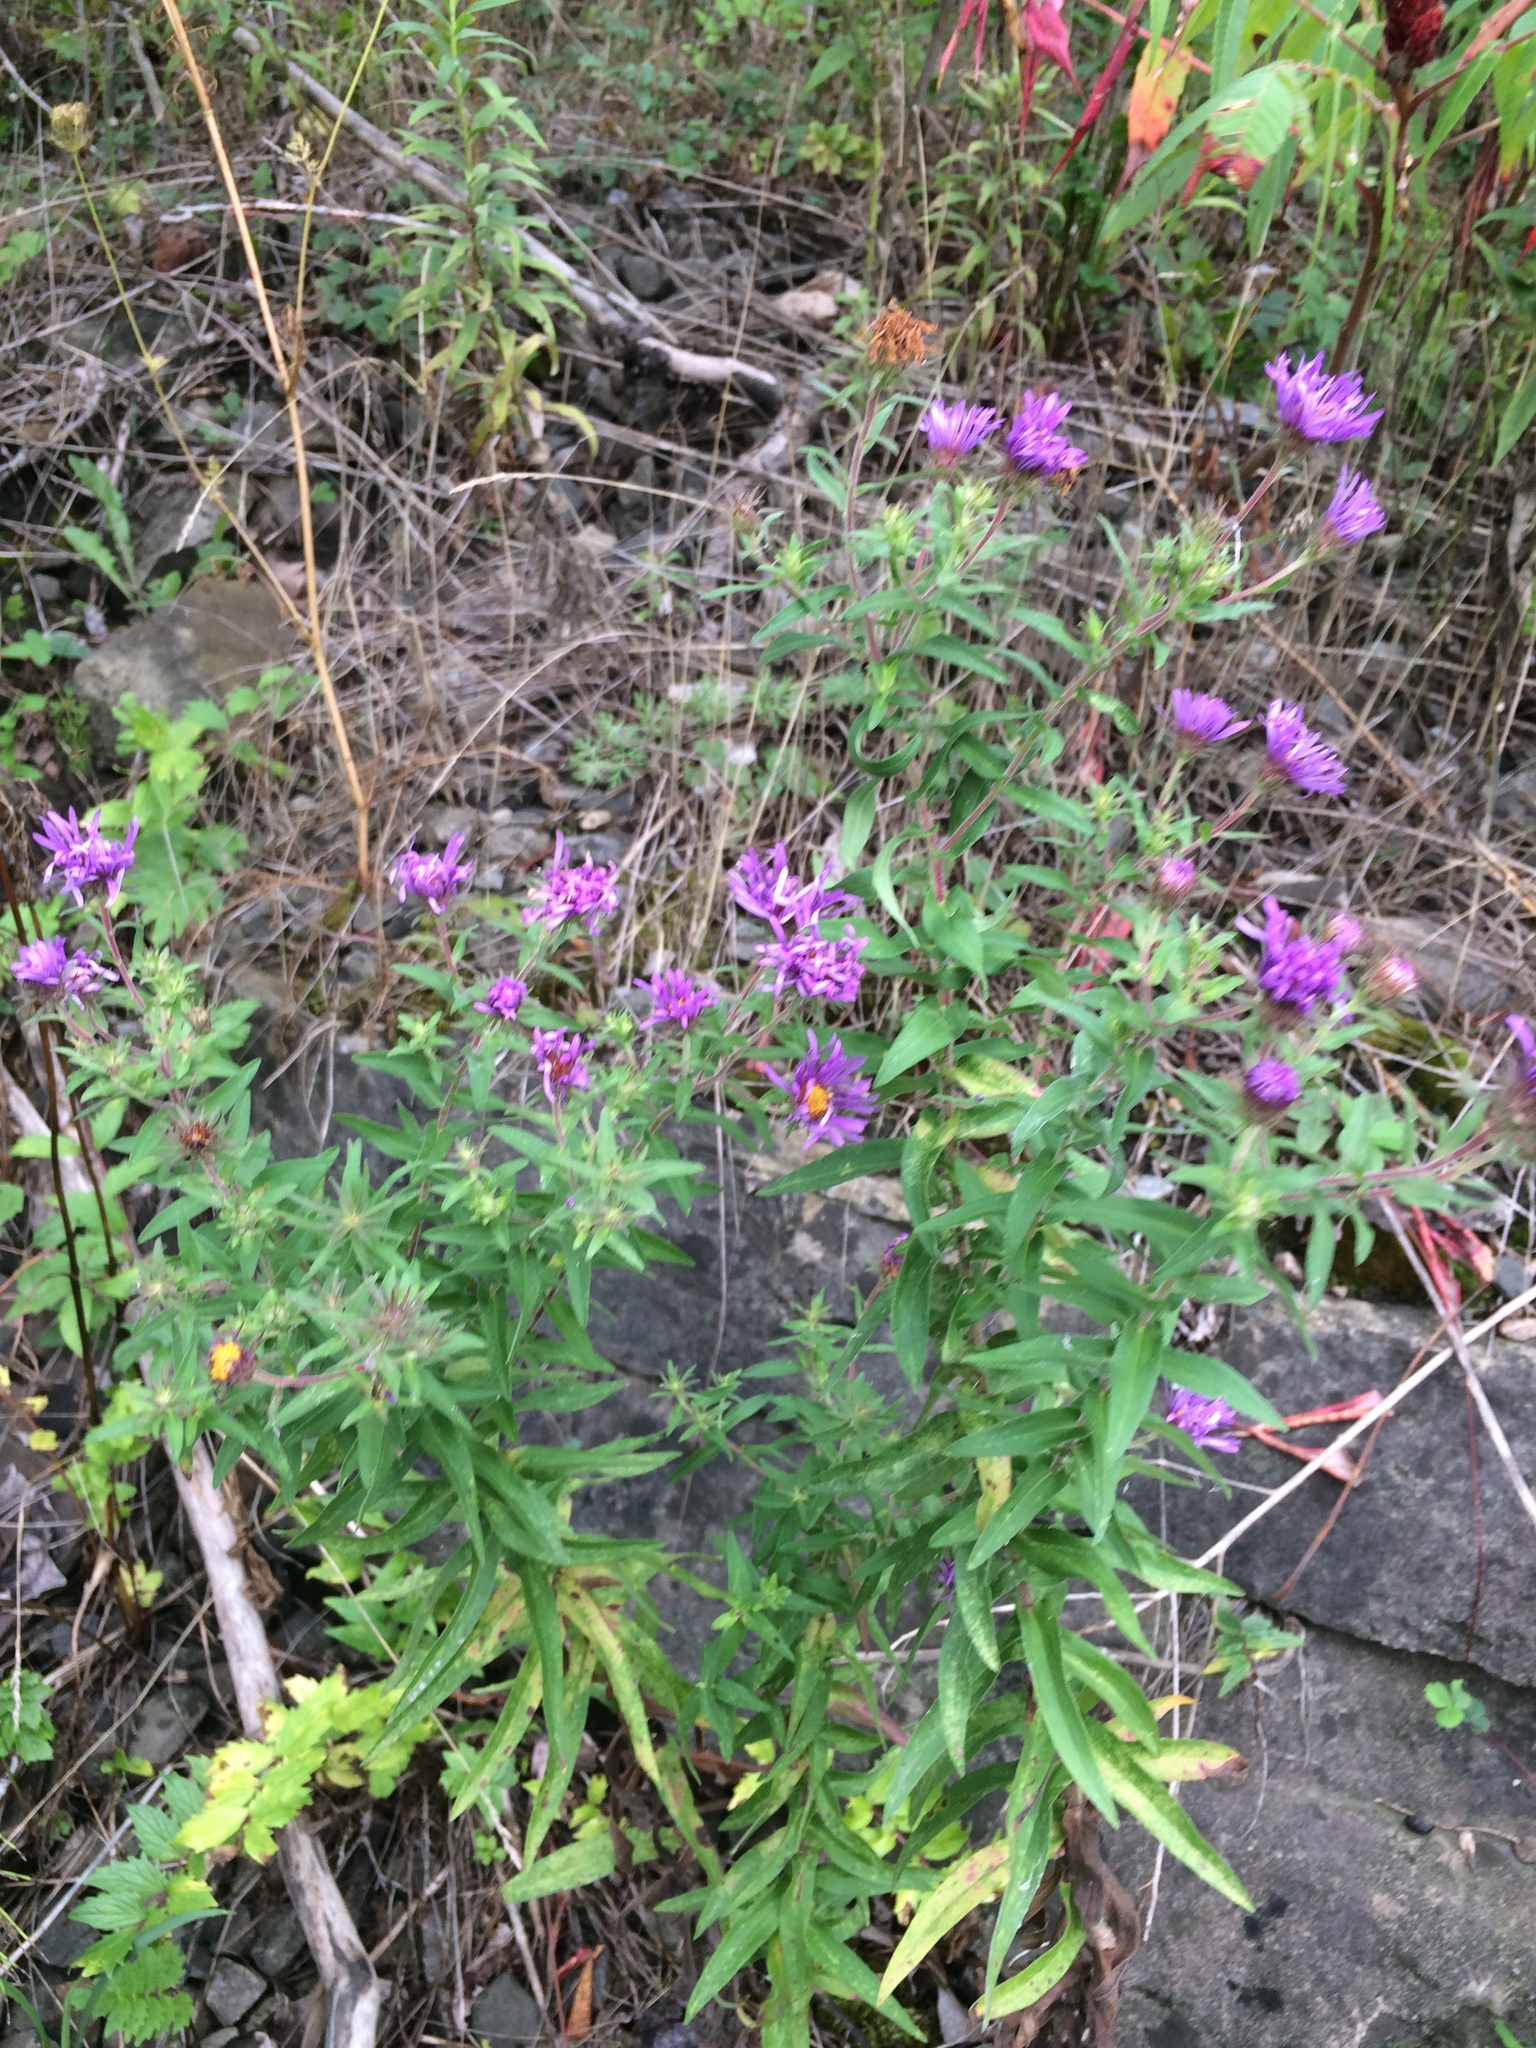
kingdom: Plantae
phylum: Tracheophyta
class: Magnoliopsida
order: Asterales
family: Asteraceae
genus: Symphyotrichum
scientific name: Symphyotrichum novae-angliae
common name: Michaelmas daisy
